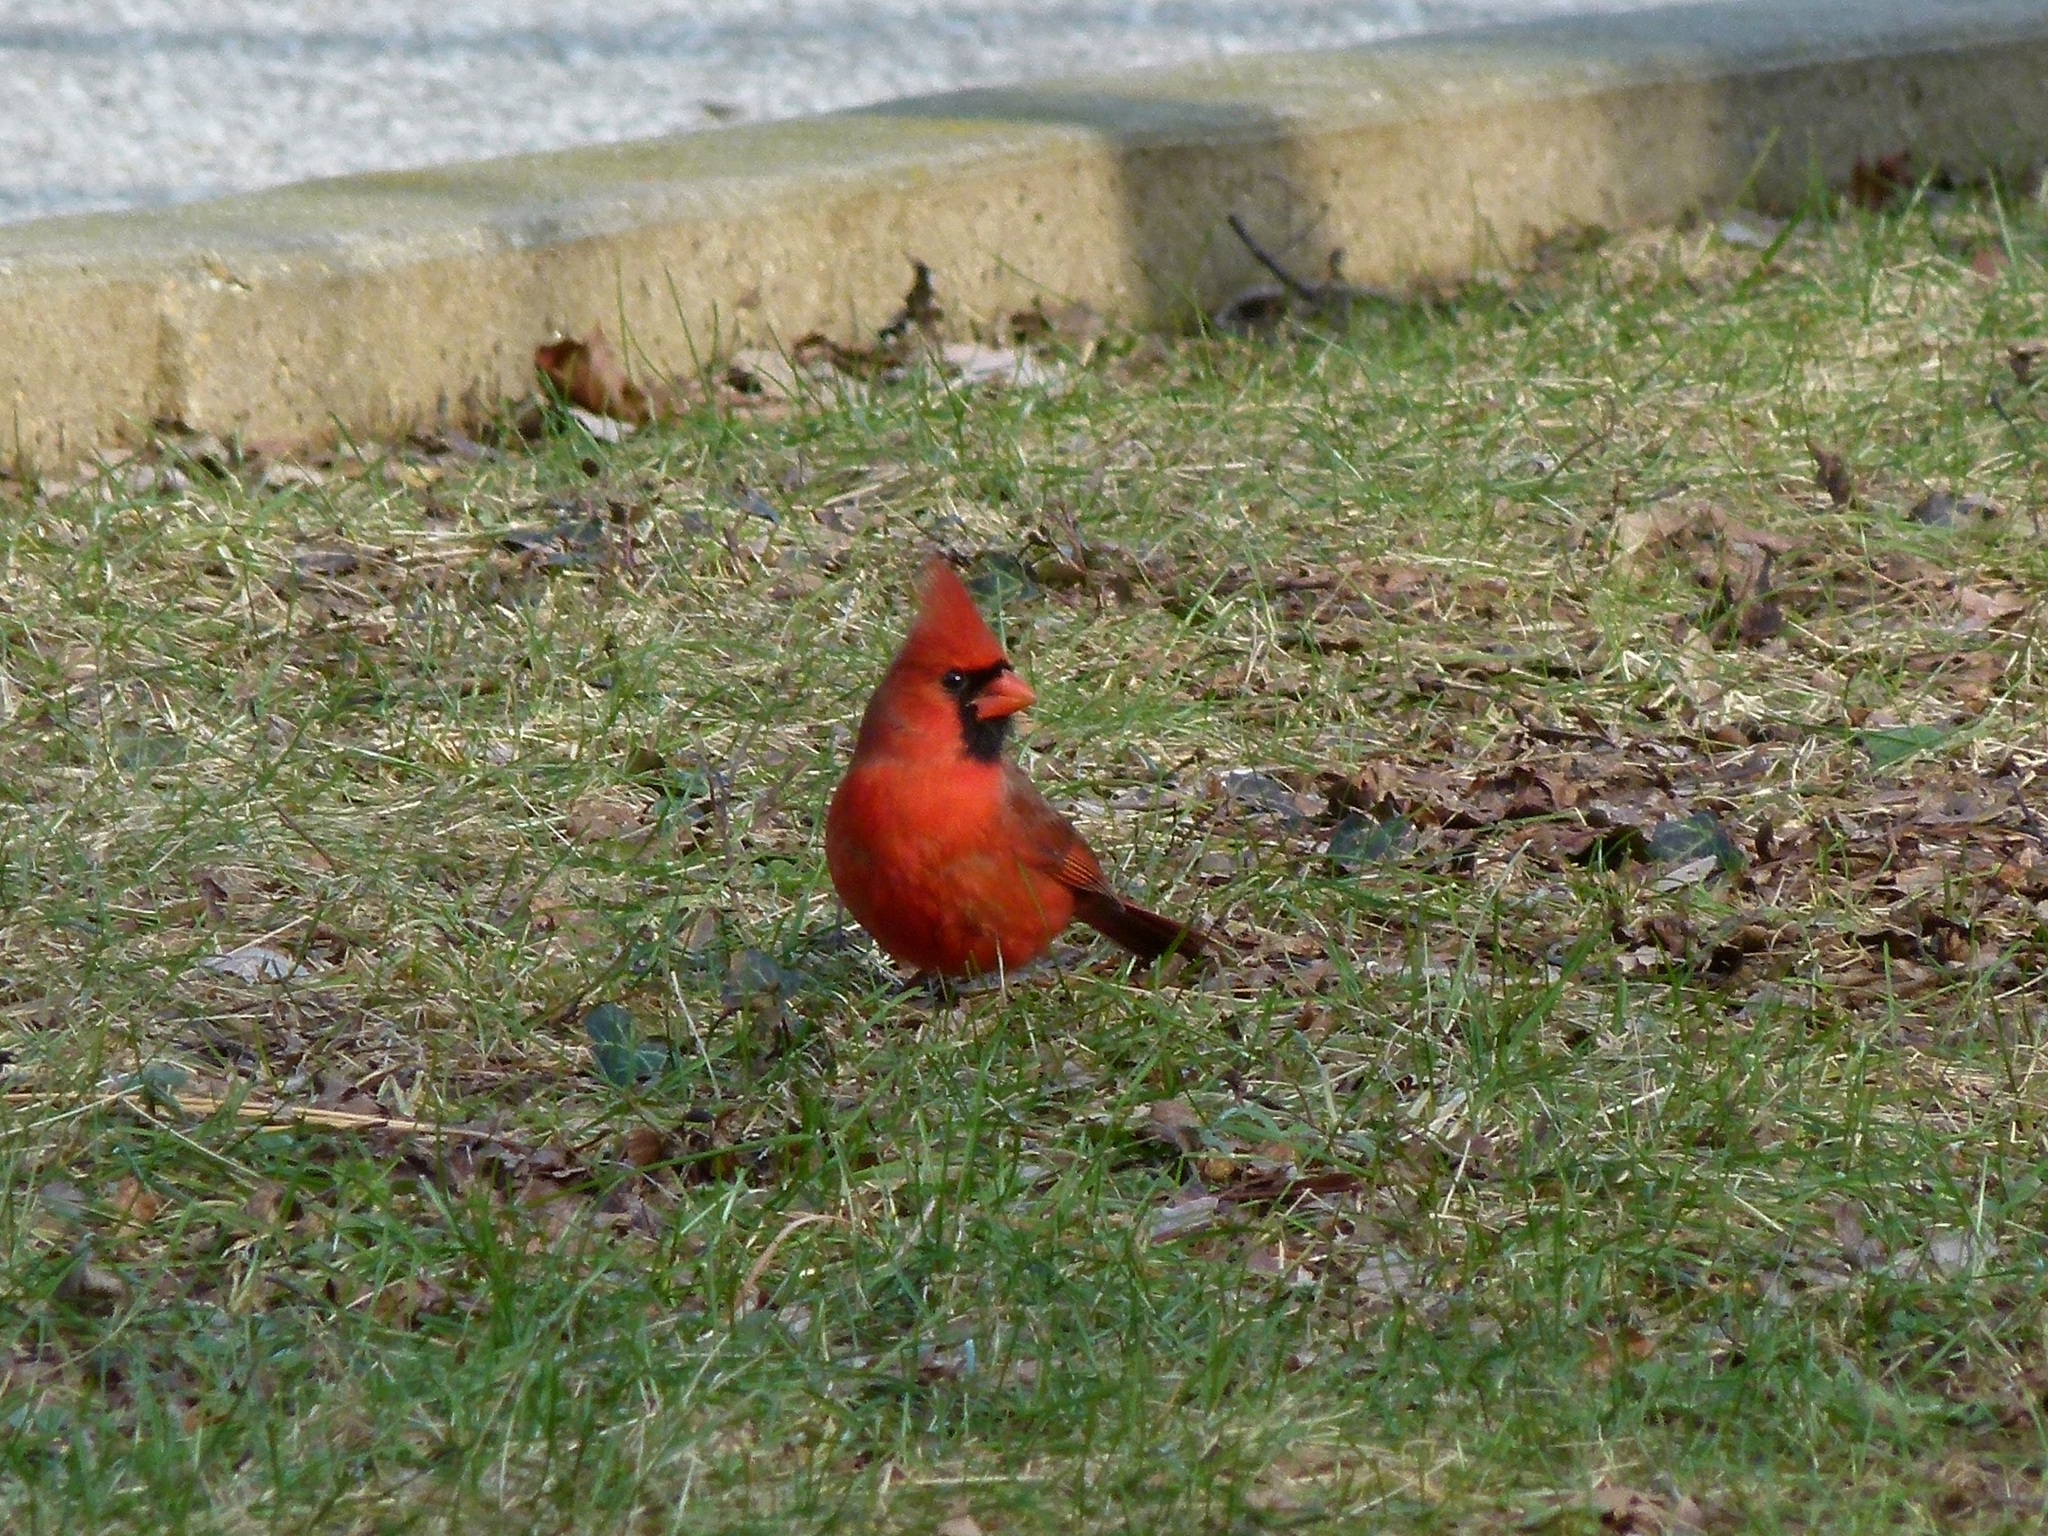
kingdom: Animalia
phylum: Chordata
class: Aves
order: Passeriformes
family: Cardinalidae
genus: Cardinalis
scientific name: Cardinalis cardinalis
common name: Northern cardinal
